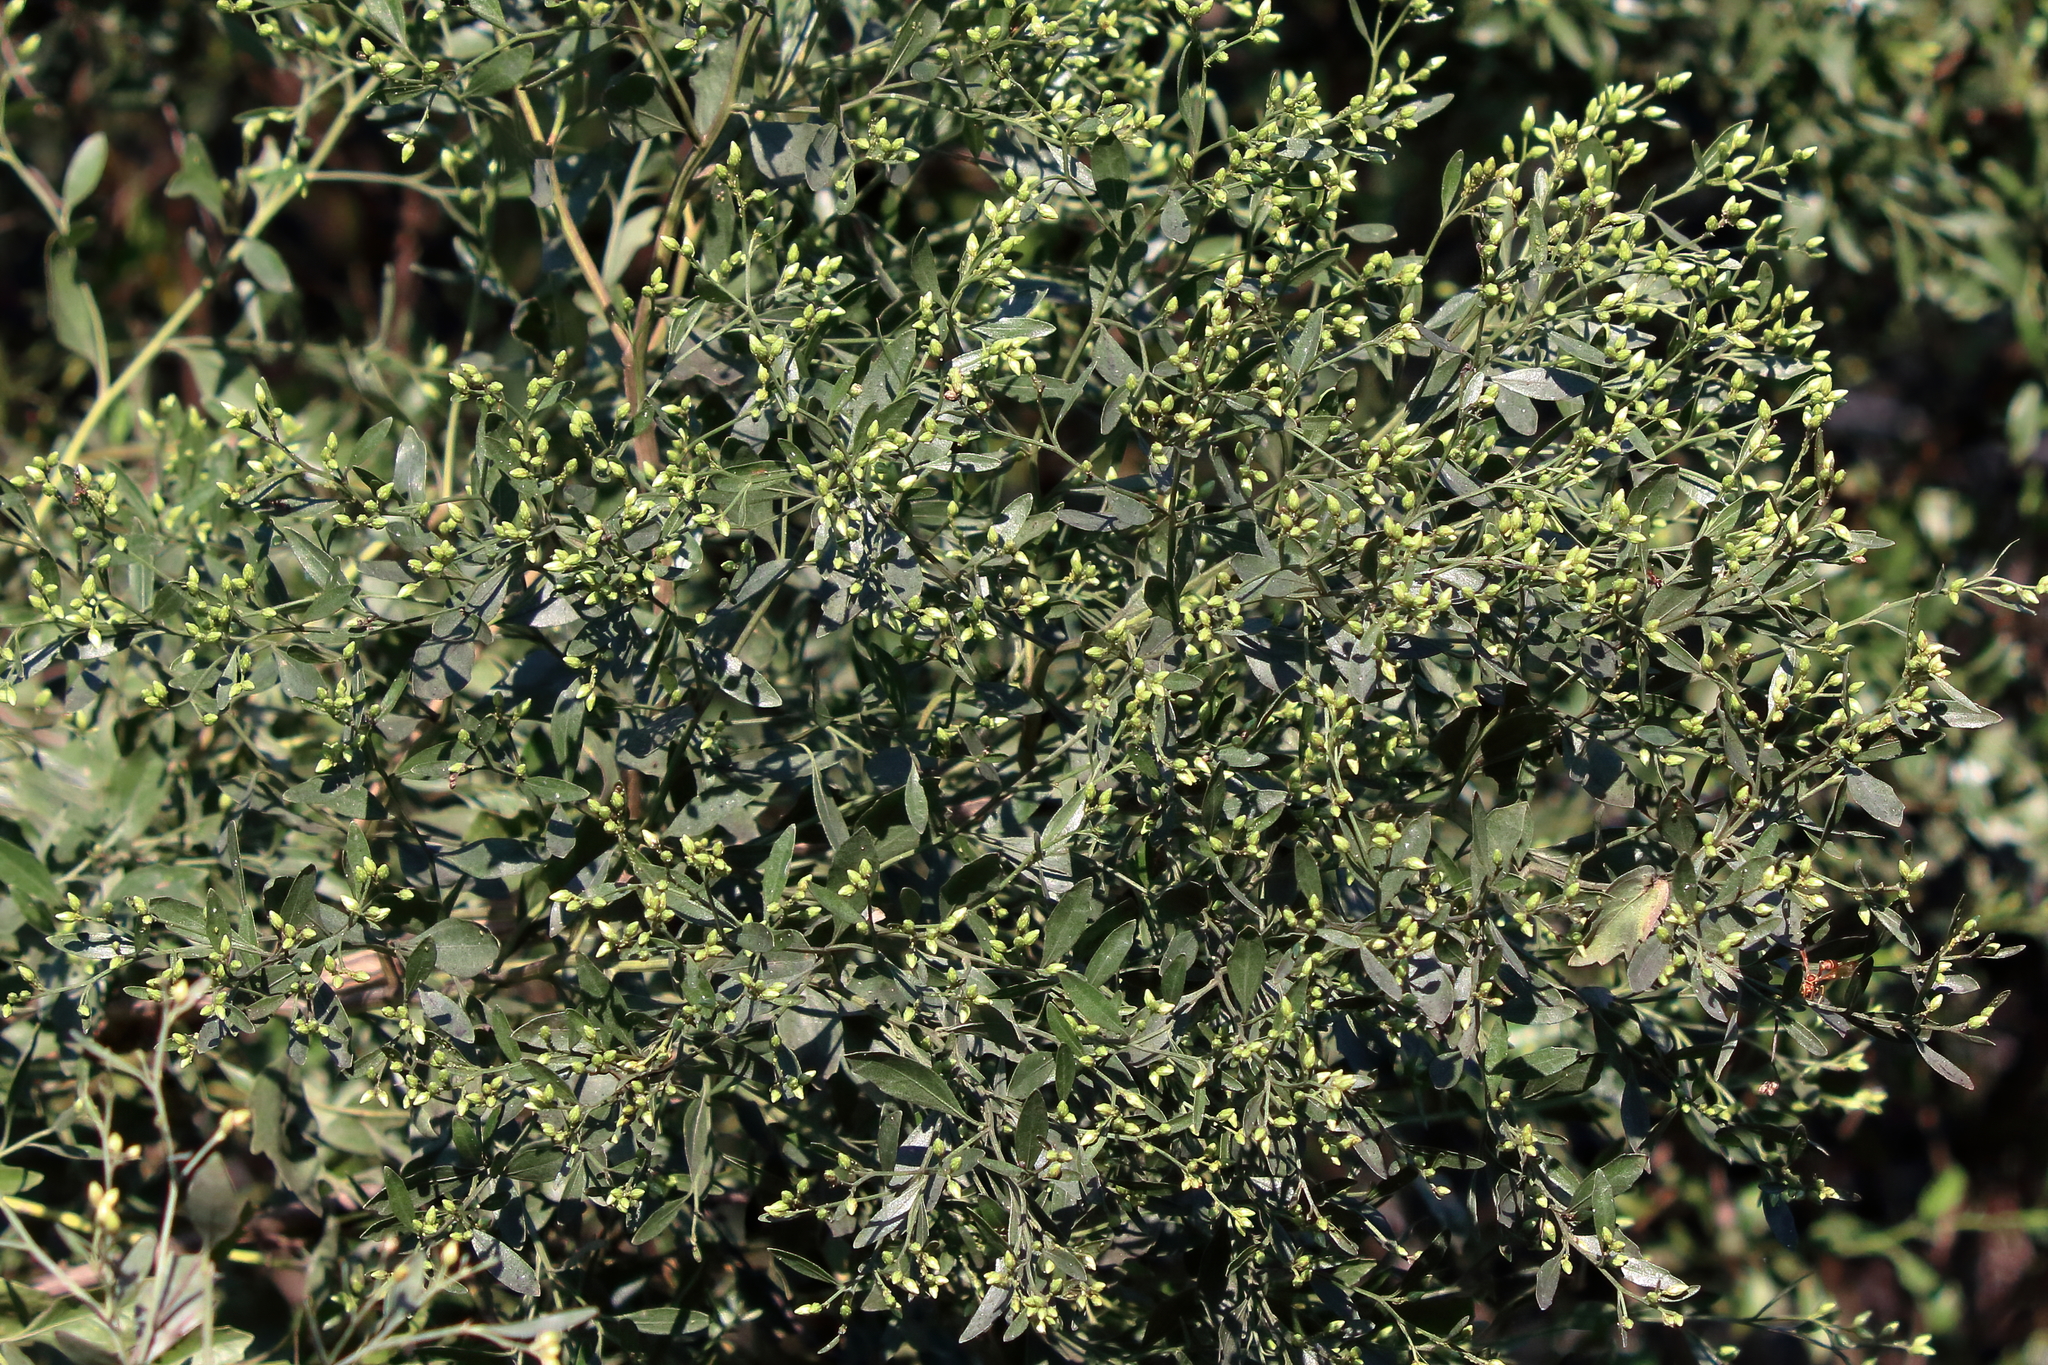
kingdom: Plantae
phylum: Tracheophyta
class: Magnoliopsida
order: Asterales
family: Asteraceae
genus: Baccharis
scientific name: Baccharis halimifolia
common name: Eastern baccharis
